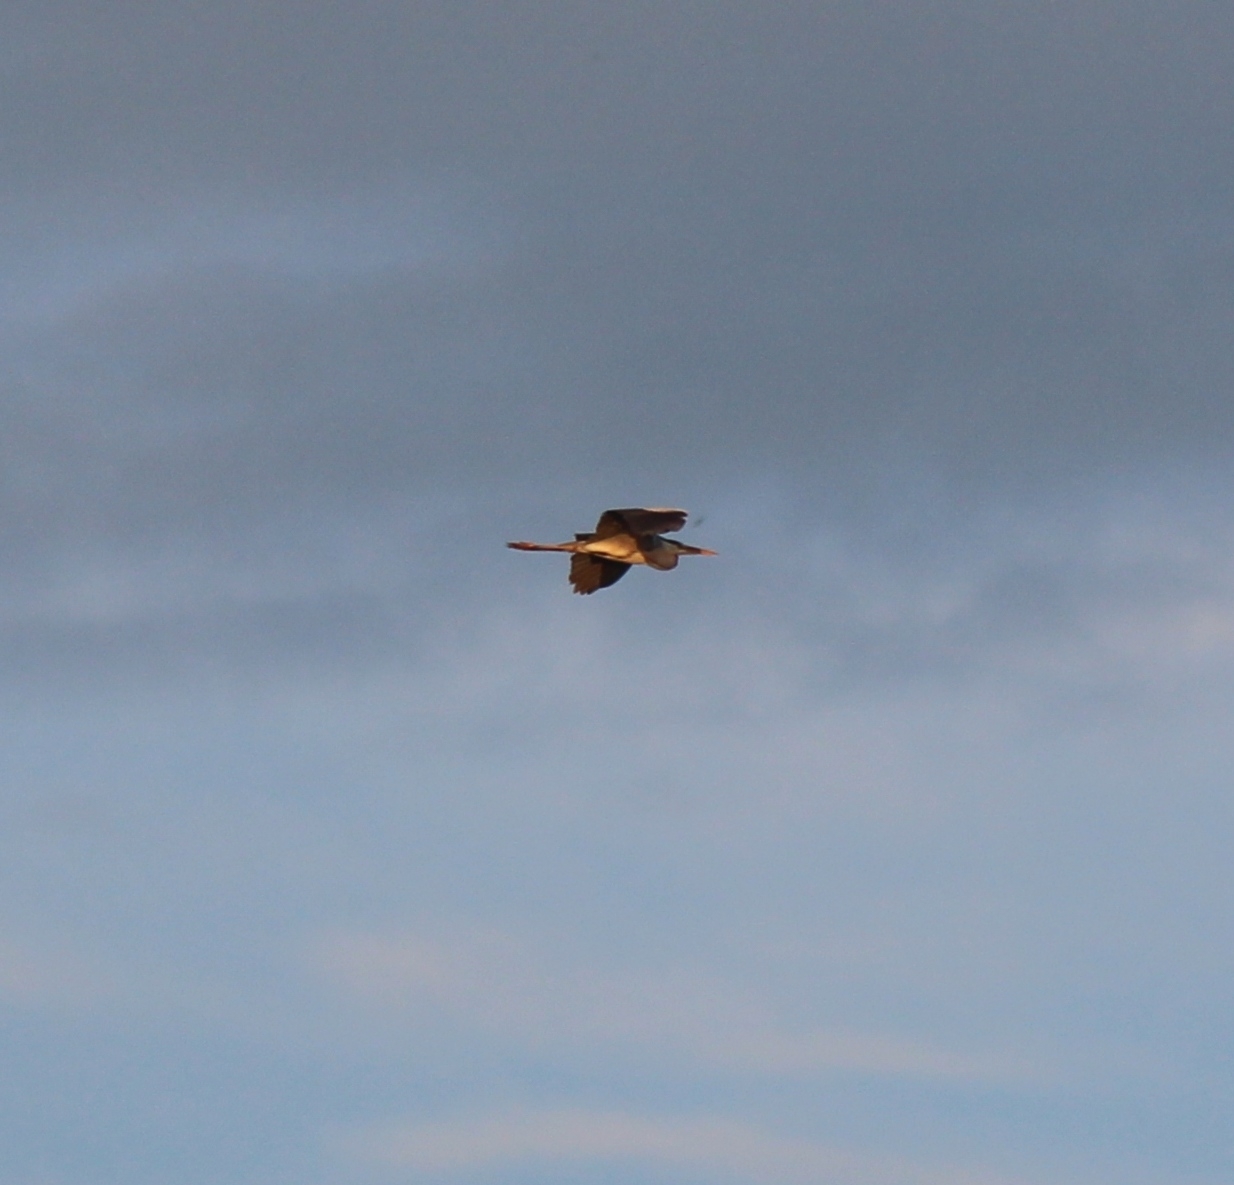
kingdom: Animalia
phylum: Chordata
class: Aves
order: Pelecaniformes
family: Ardeidae
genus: Ardea
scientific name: Ardea cinerea
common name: Grey heron
